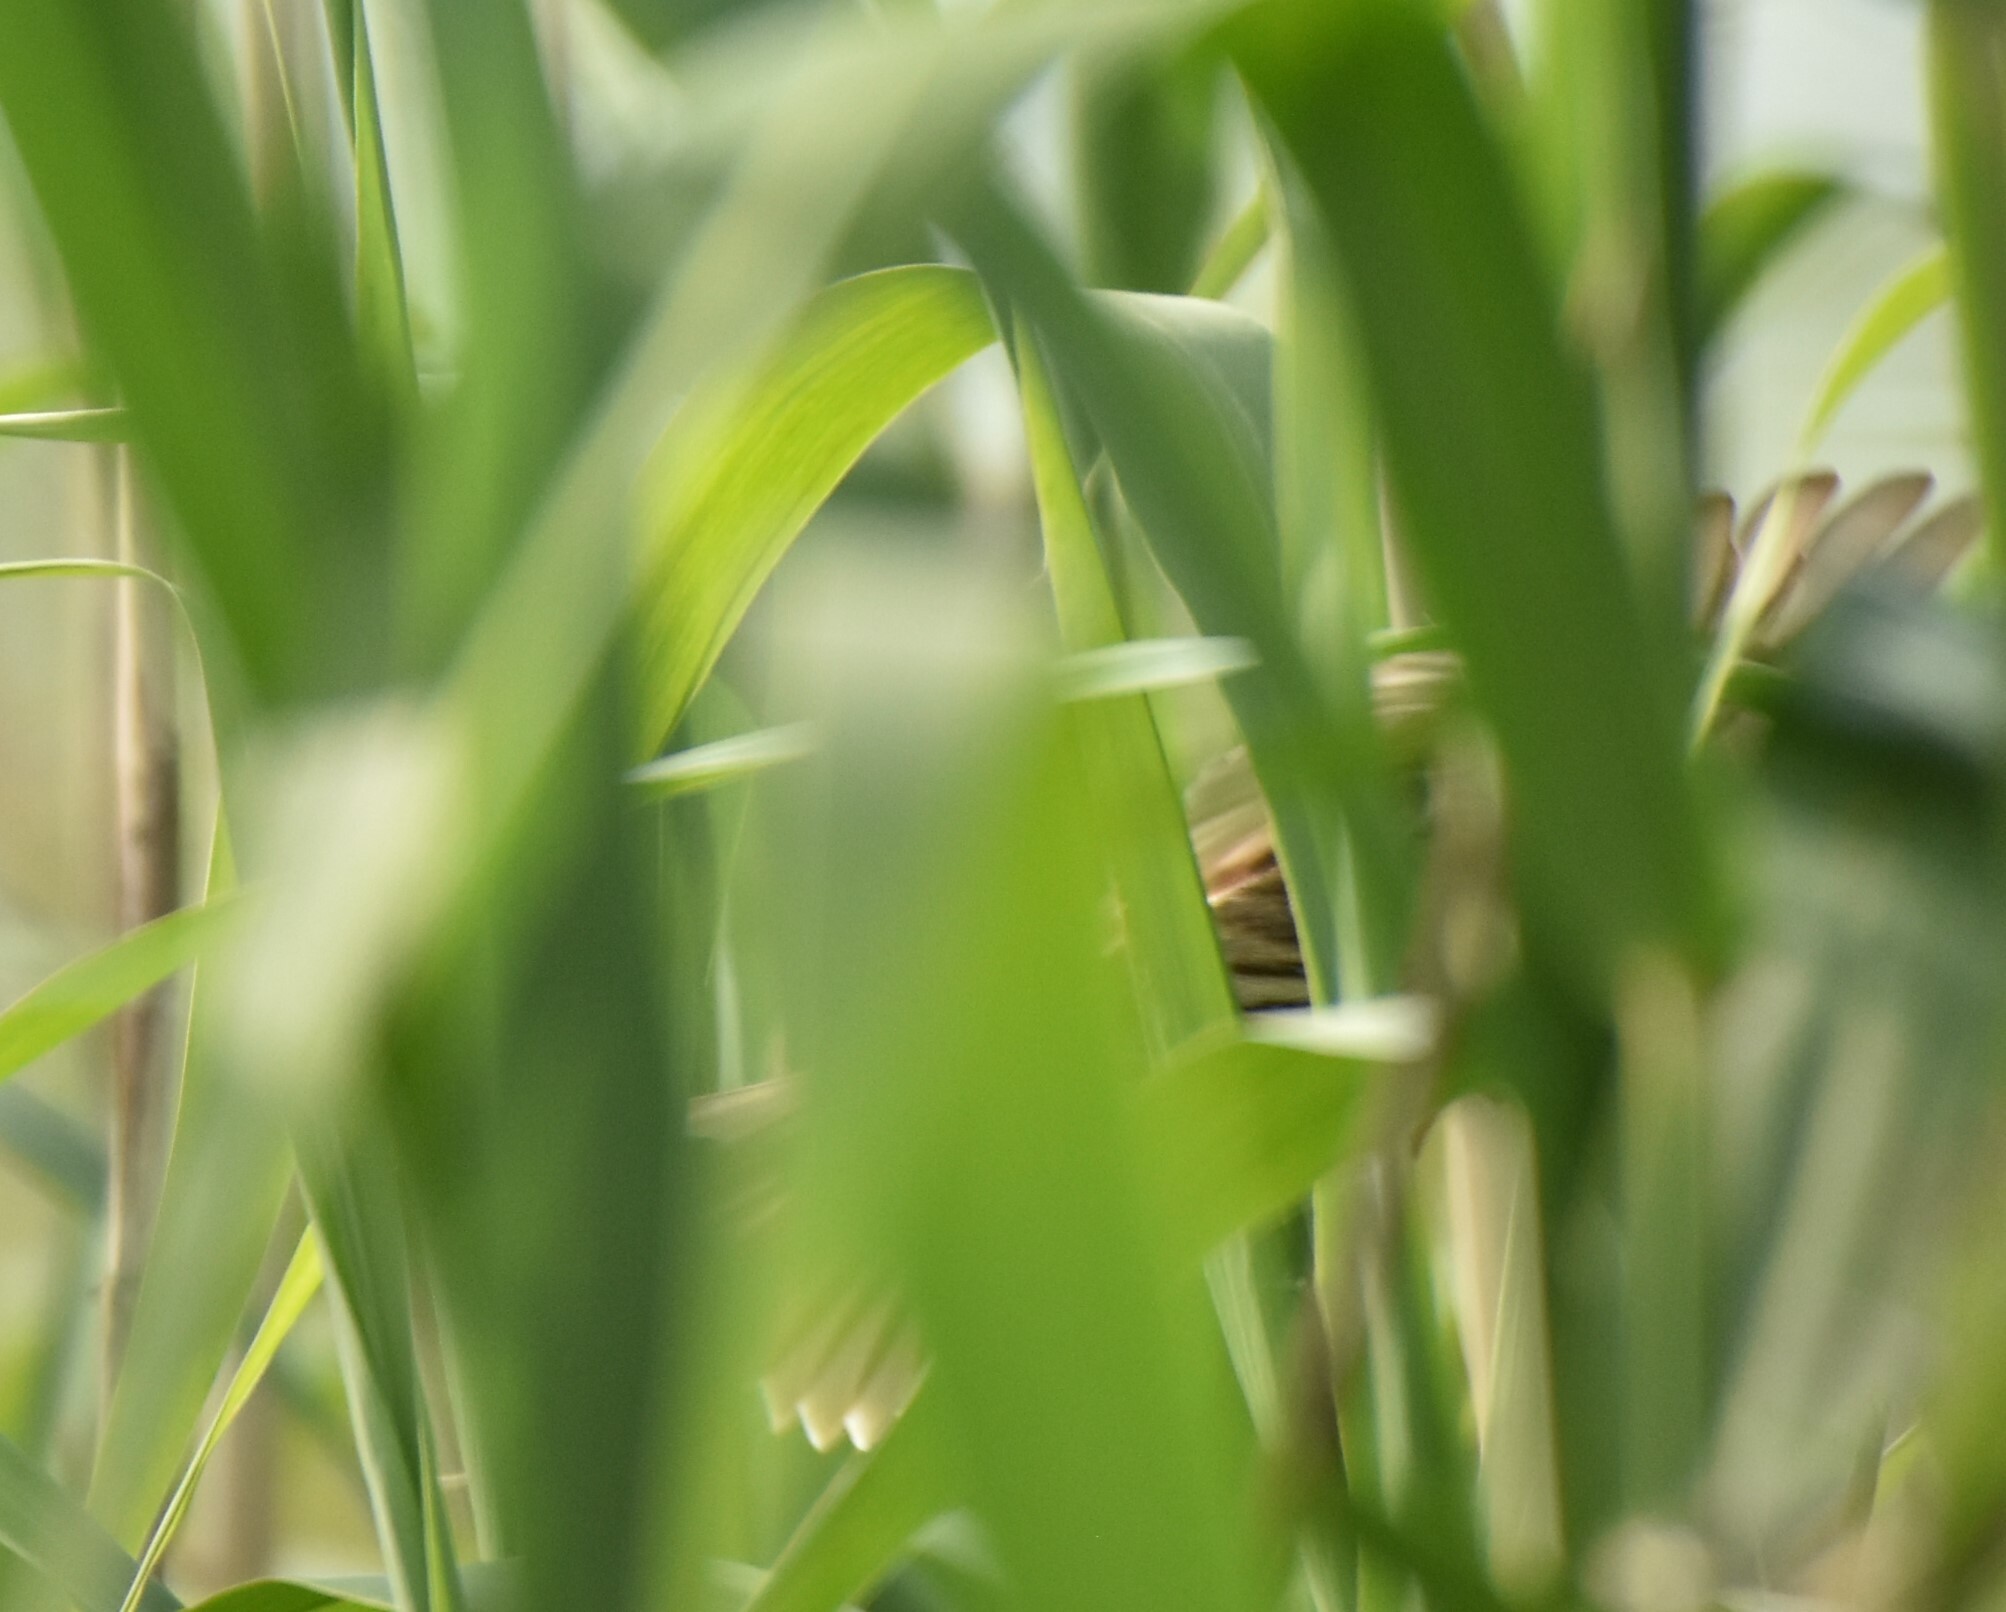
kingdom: Animalia
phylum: Chordata
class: Aves
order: Passeriformes
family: Emberizidae
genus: Emberiza
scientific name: Emberiza calandra
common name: Corn bunting
